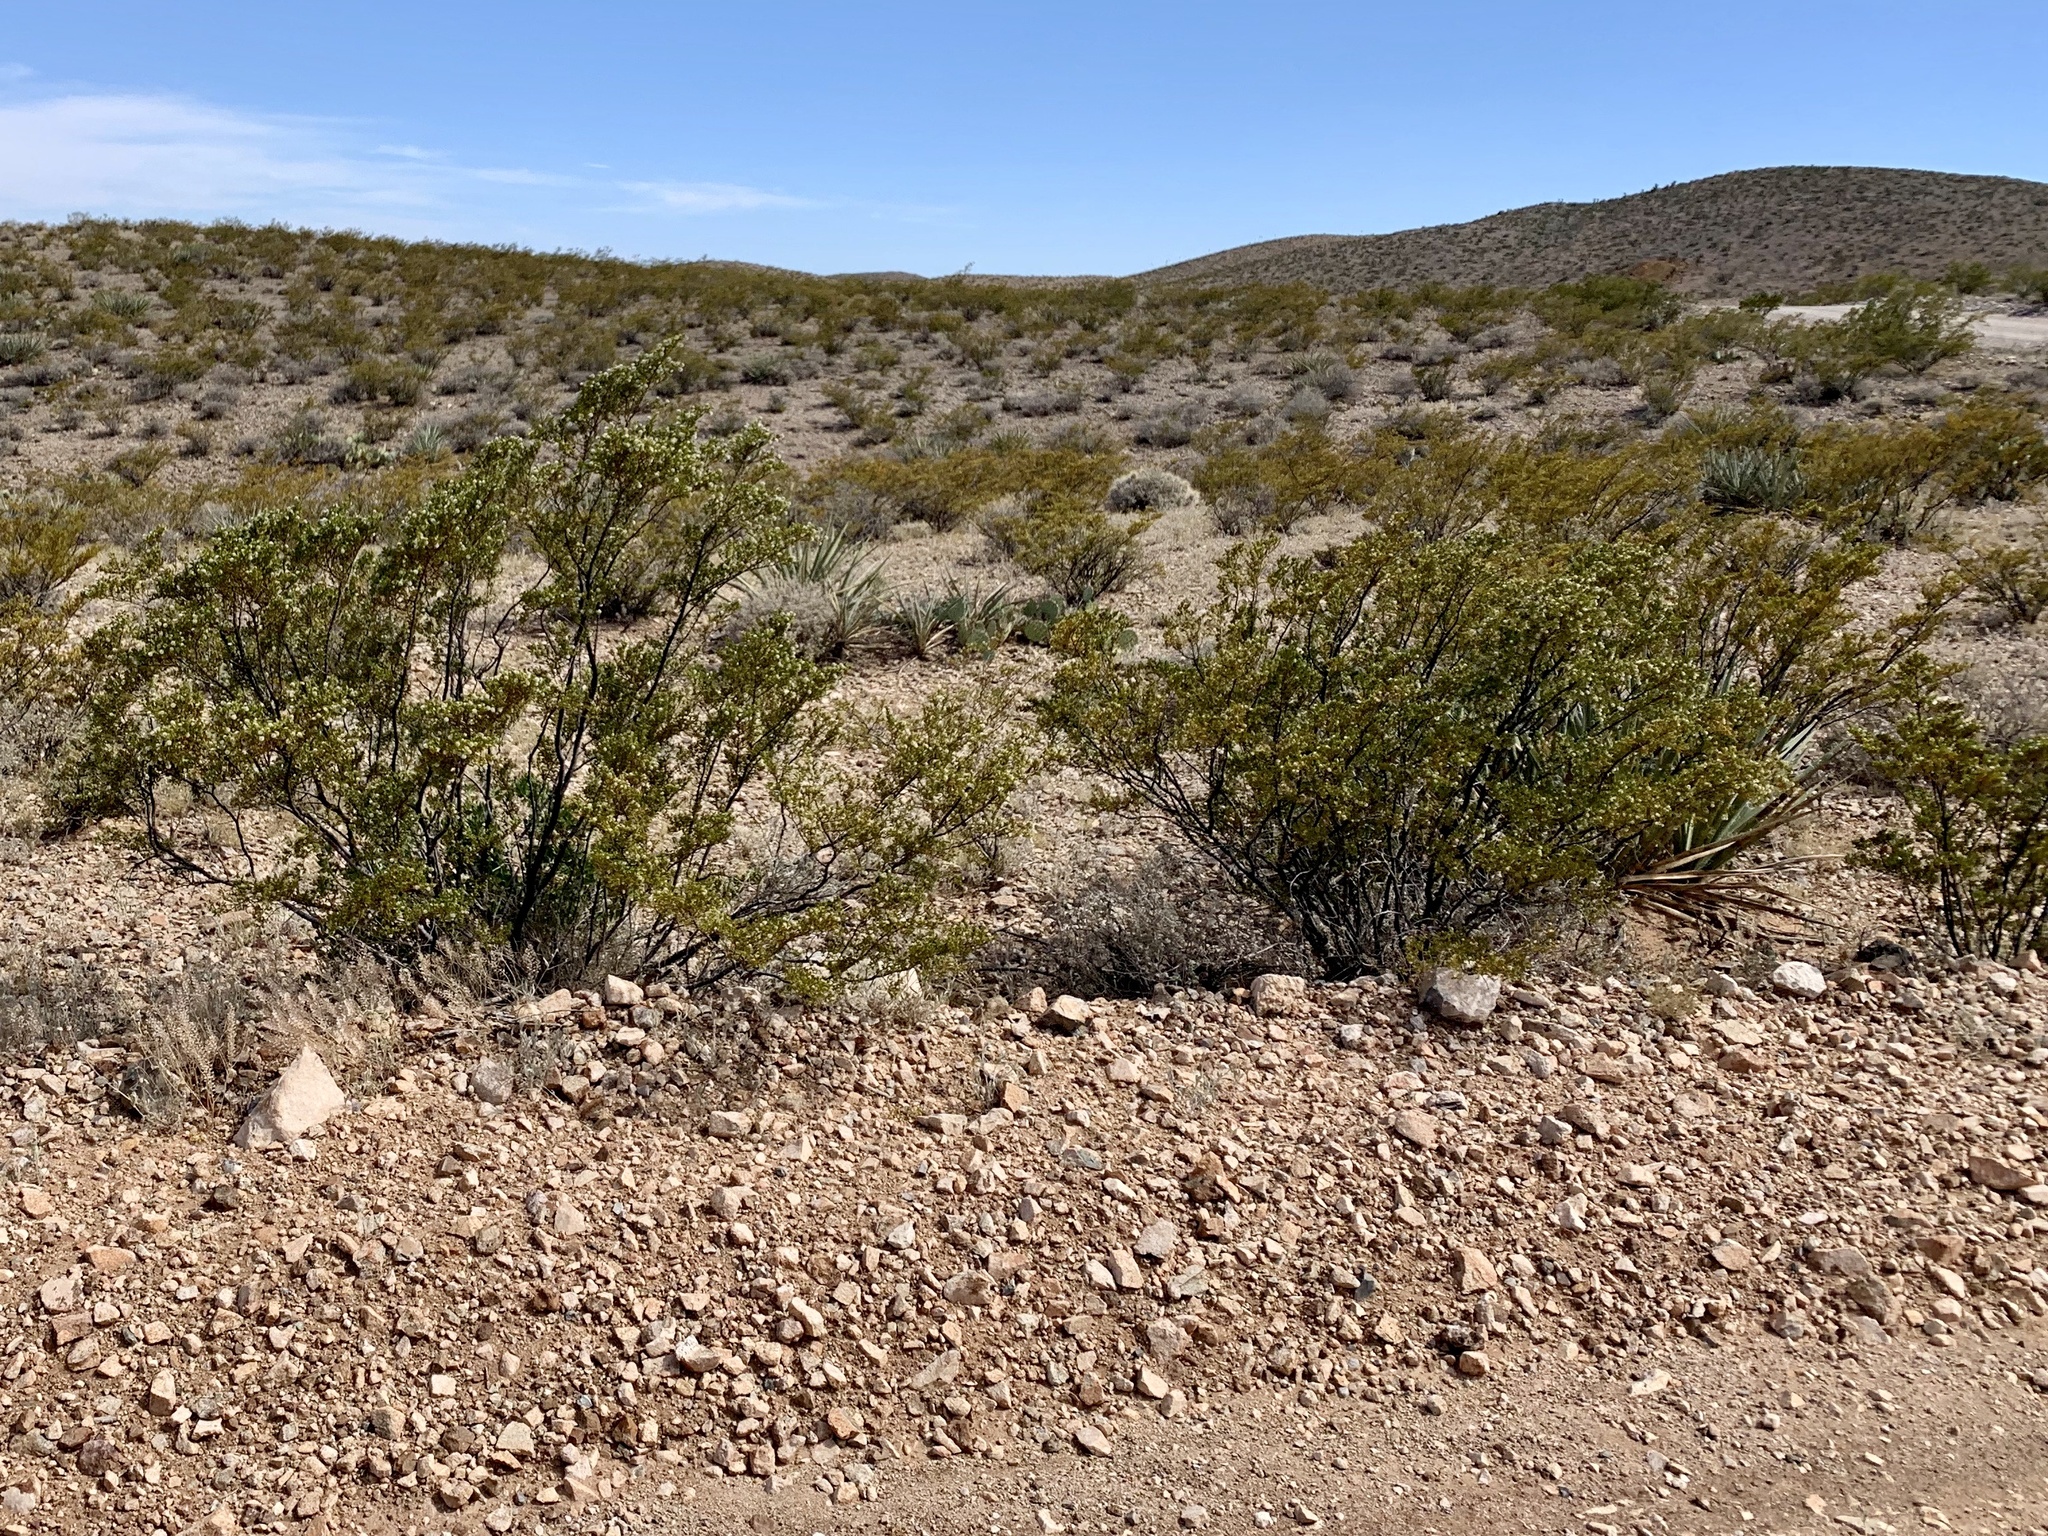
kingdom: Plantae
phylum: Tracheophyta
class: Magnoliopsida
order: Zygophyllales
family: Zygophyllaceae
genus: Larrea
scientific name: Larrea tridentata
